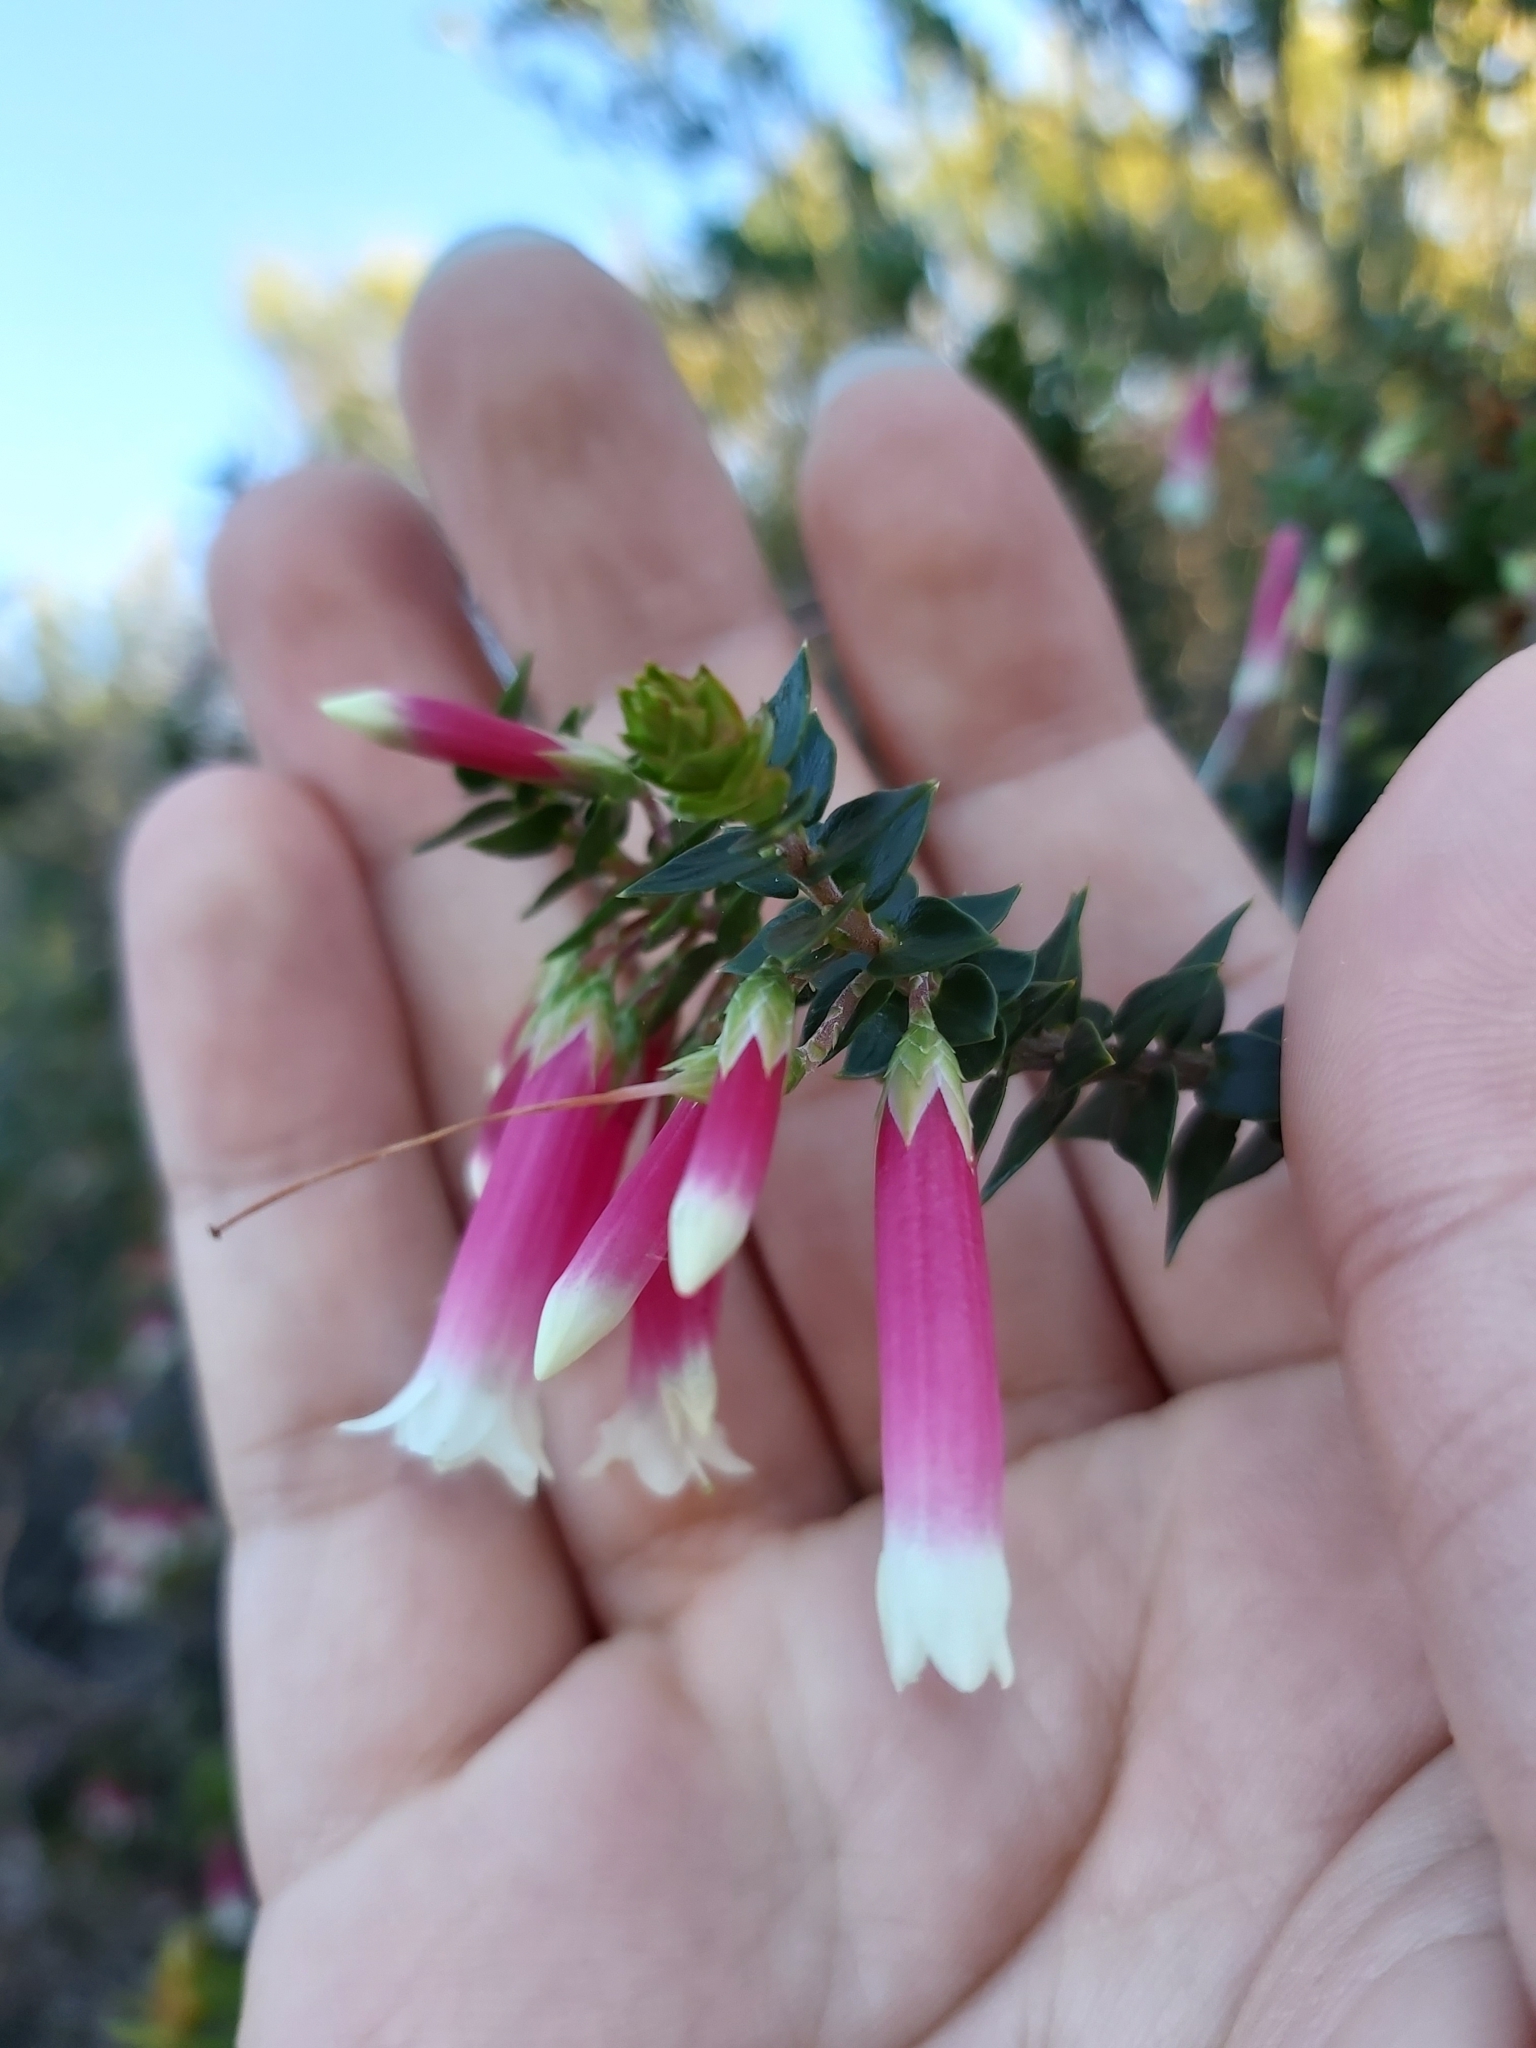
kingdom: Plantae
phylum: Tracheophyta
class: Magnoliopsida
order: Ericales
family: Ericaceae
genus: Epacris
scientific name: Epacris longiflora
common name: Fuchsia-heath
